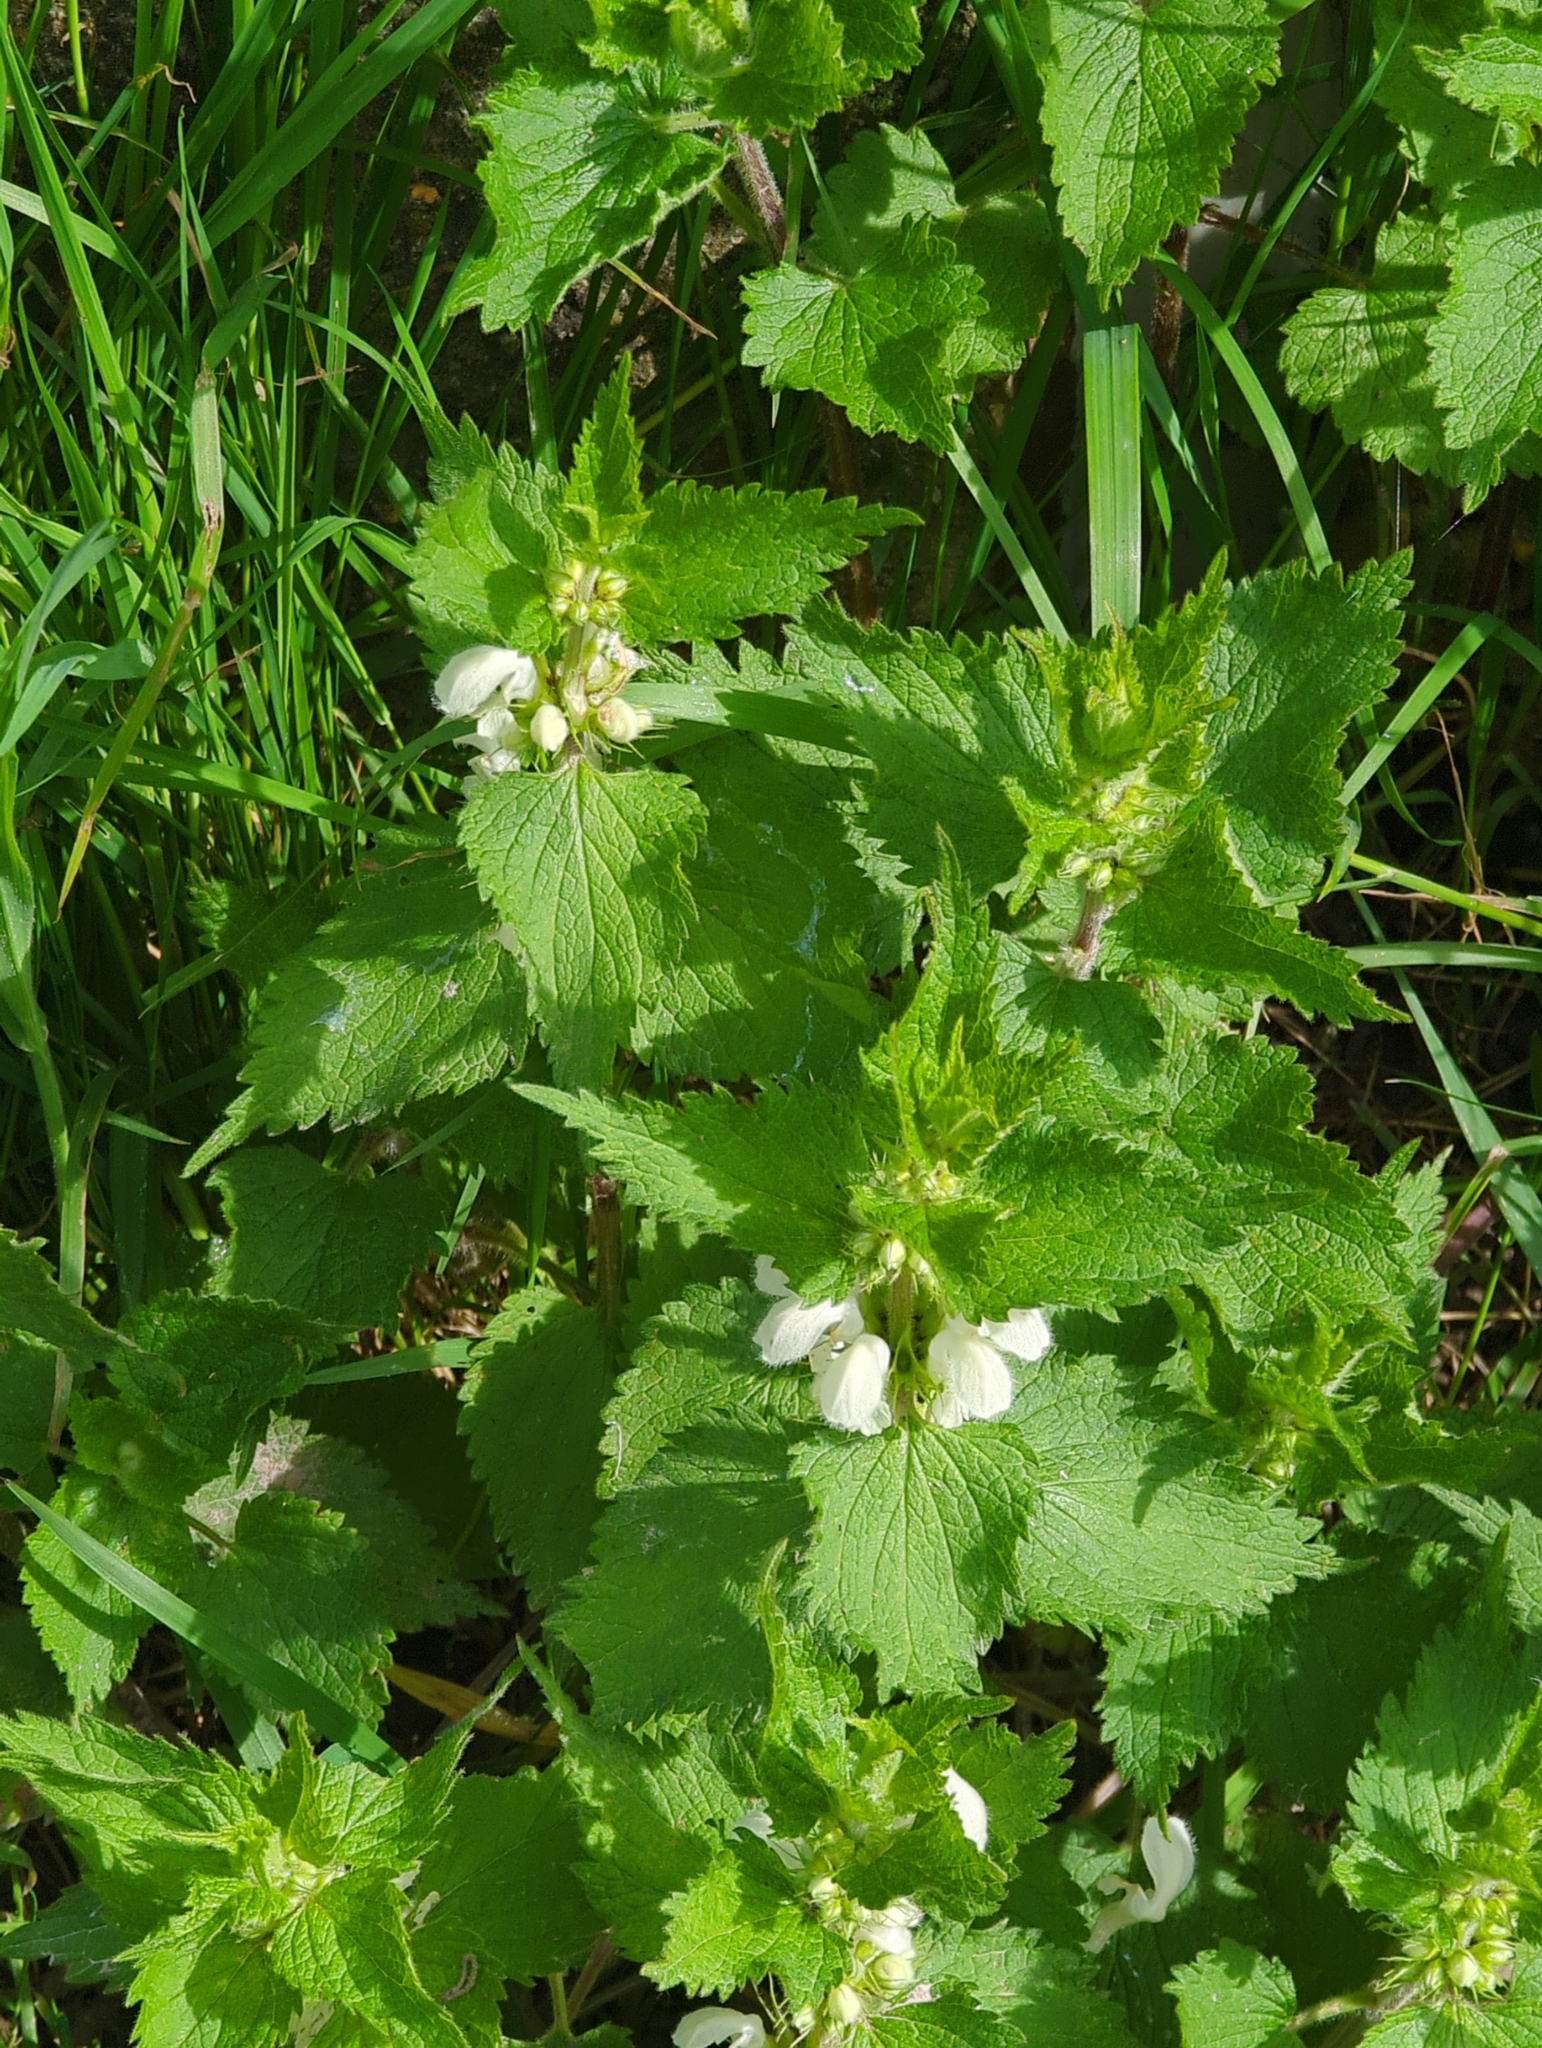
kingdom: Plantae
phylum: Tracheophyta
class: Magnoliopsida
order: Lamiales
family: Lamiaceae
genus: Lamium
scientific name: Lamium album
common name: White dead-nettle
